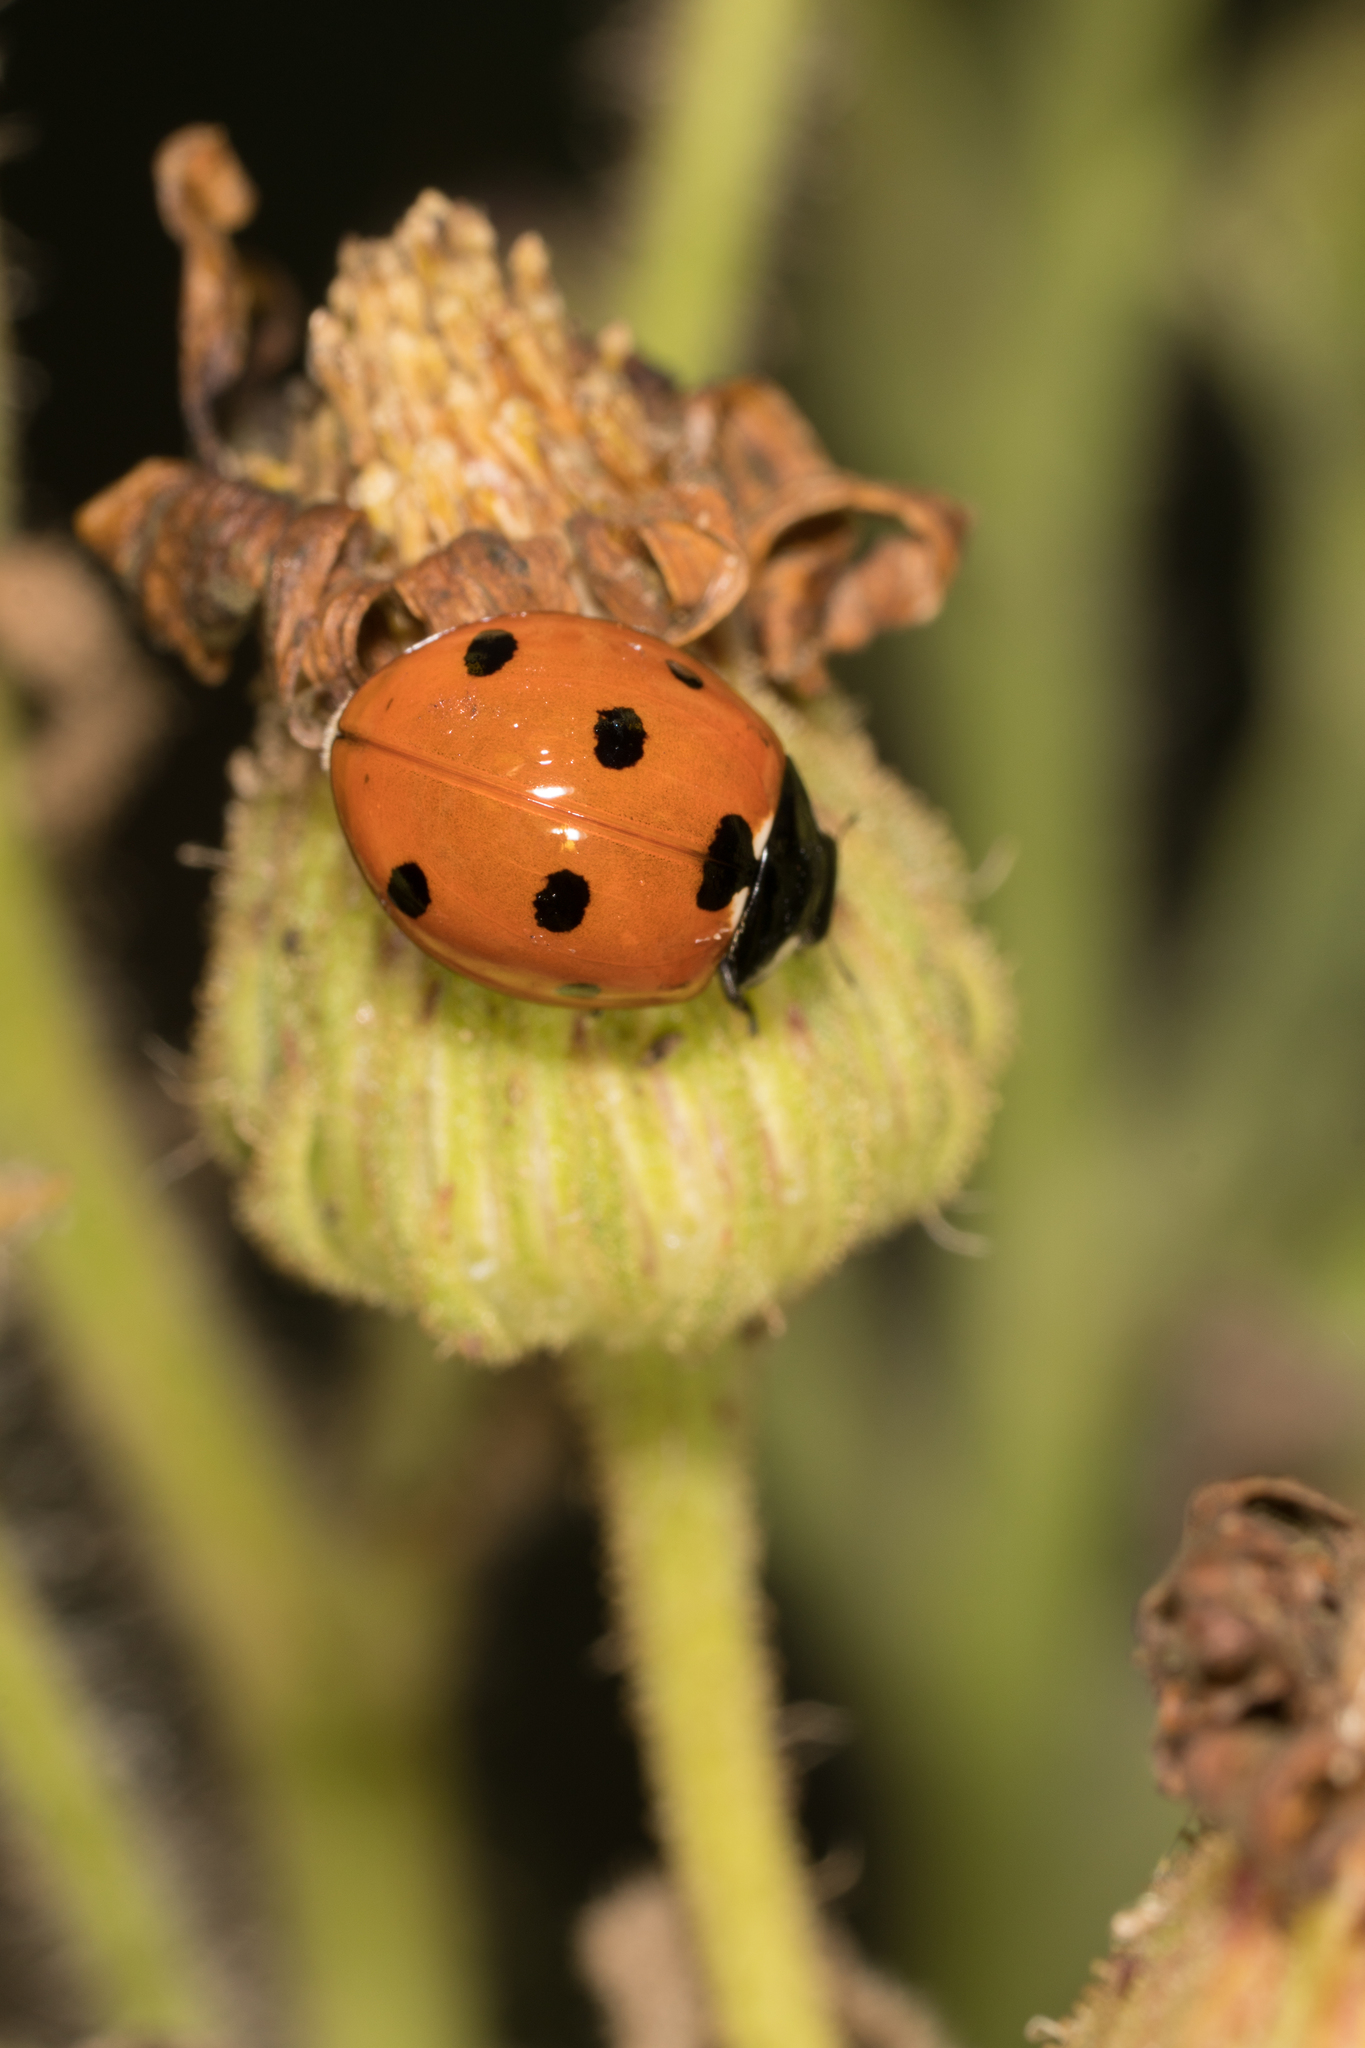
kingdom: Animalia
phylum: Arthropoda
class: Insecta
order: Coleoptera
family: Coccinellidae
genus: Coccinella
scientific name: Coccinella septempunctata
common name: Sevenspotted lady beetle
